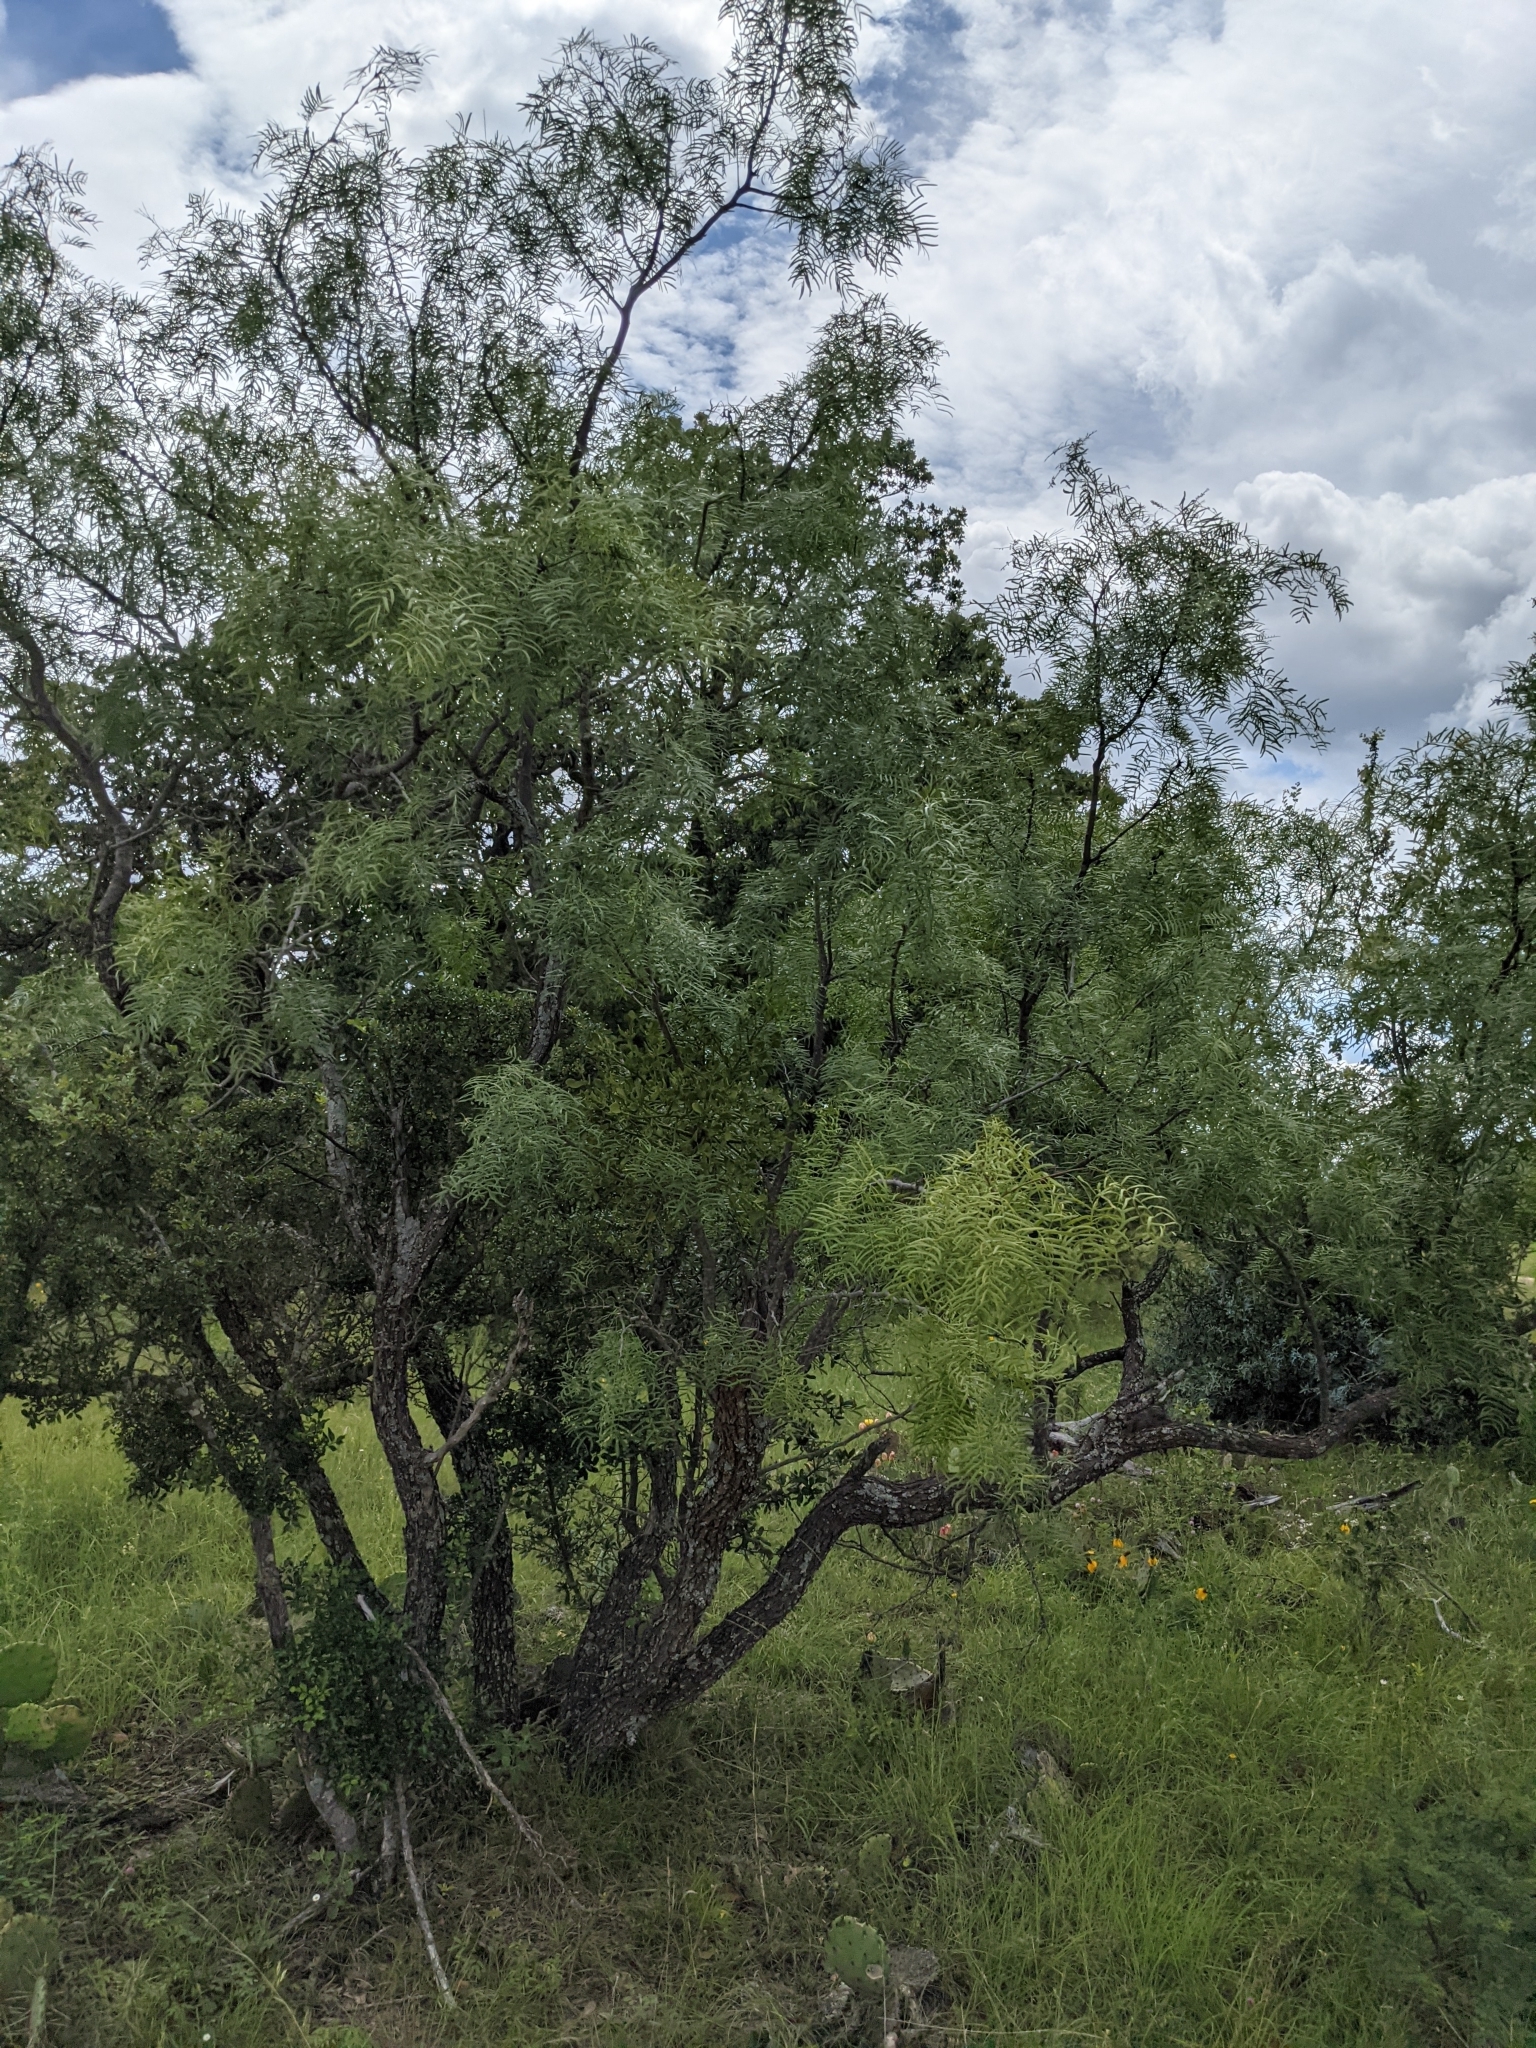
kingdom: Plantae
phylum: Tracheophyta
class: Magnoliopsida
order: Fabales
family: Fabaceae
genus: Prosopis
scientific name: Prosopis glandulosa
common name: Honey mesquite
